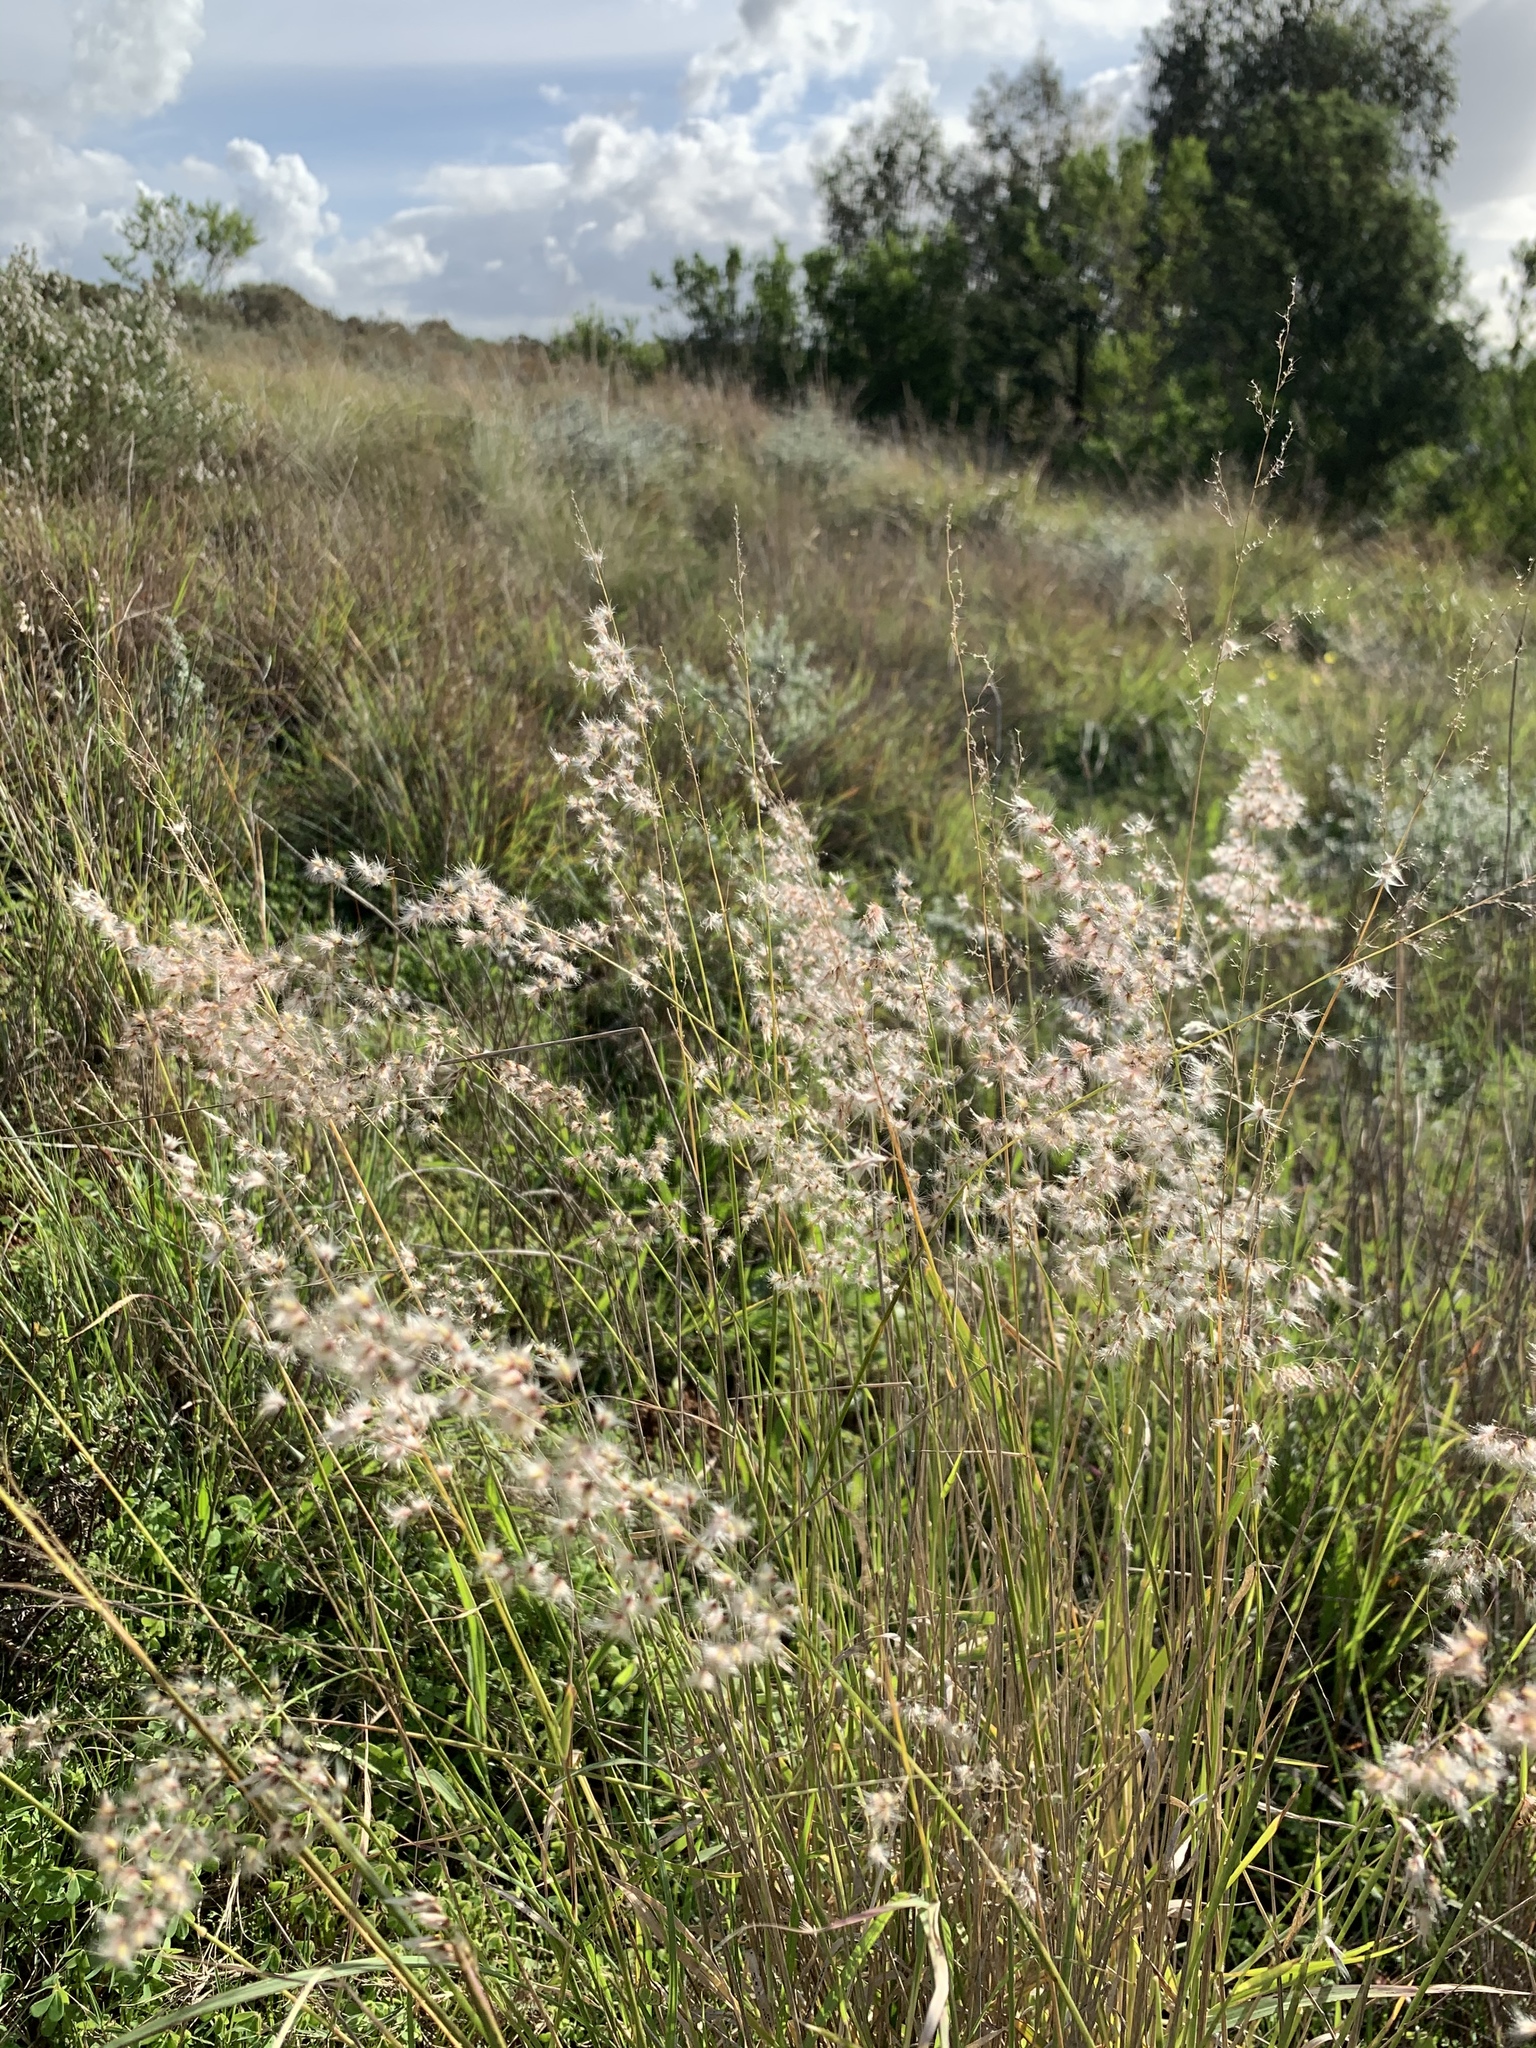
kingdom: Plantae
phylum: Tracheophyta
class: Liliopsida
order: Poales
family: Poaceae
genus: Melinis
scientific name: Melinis repens
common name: Rose natal grass
